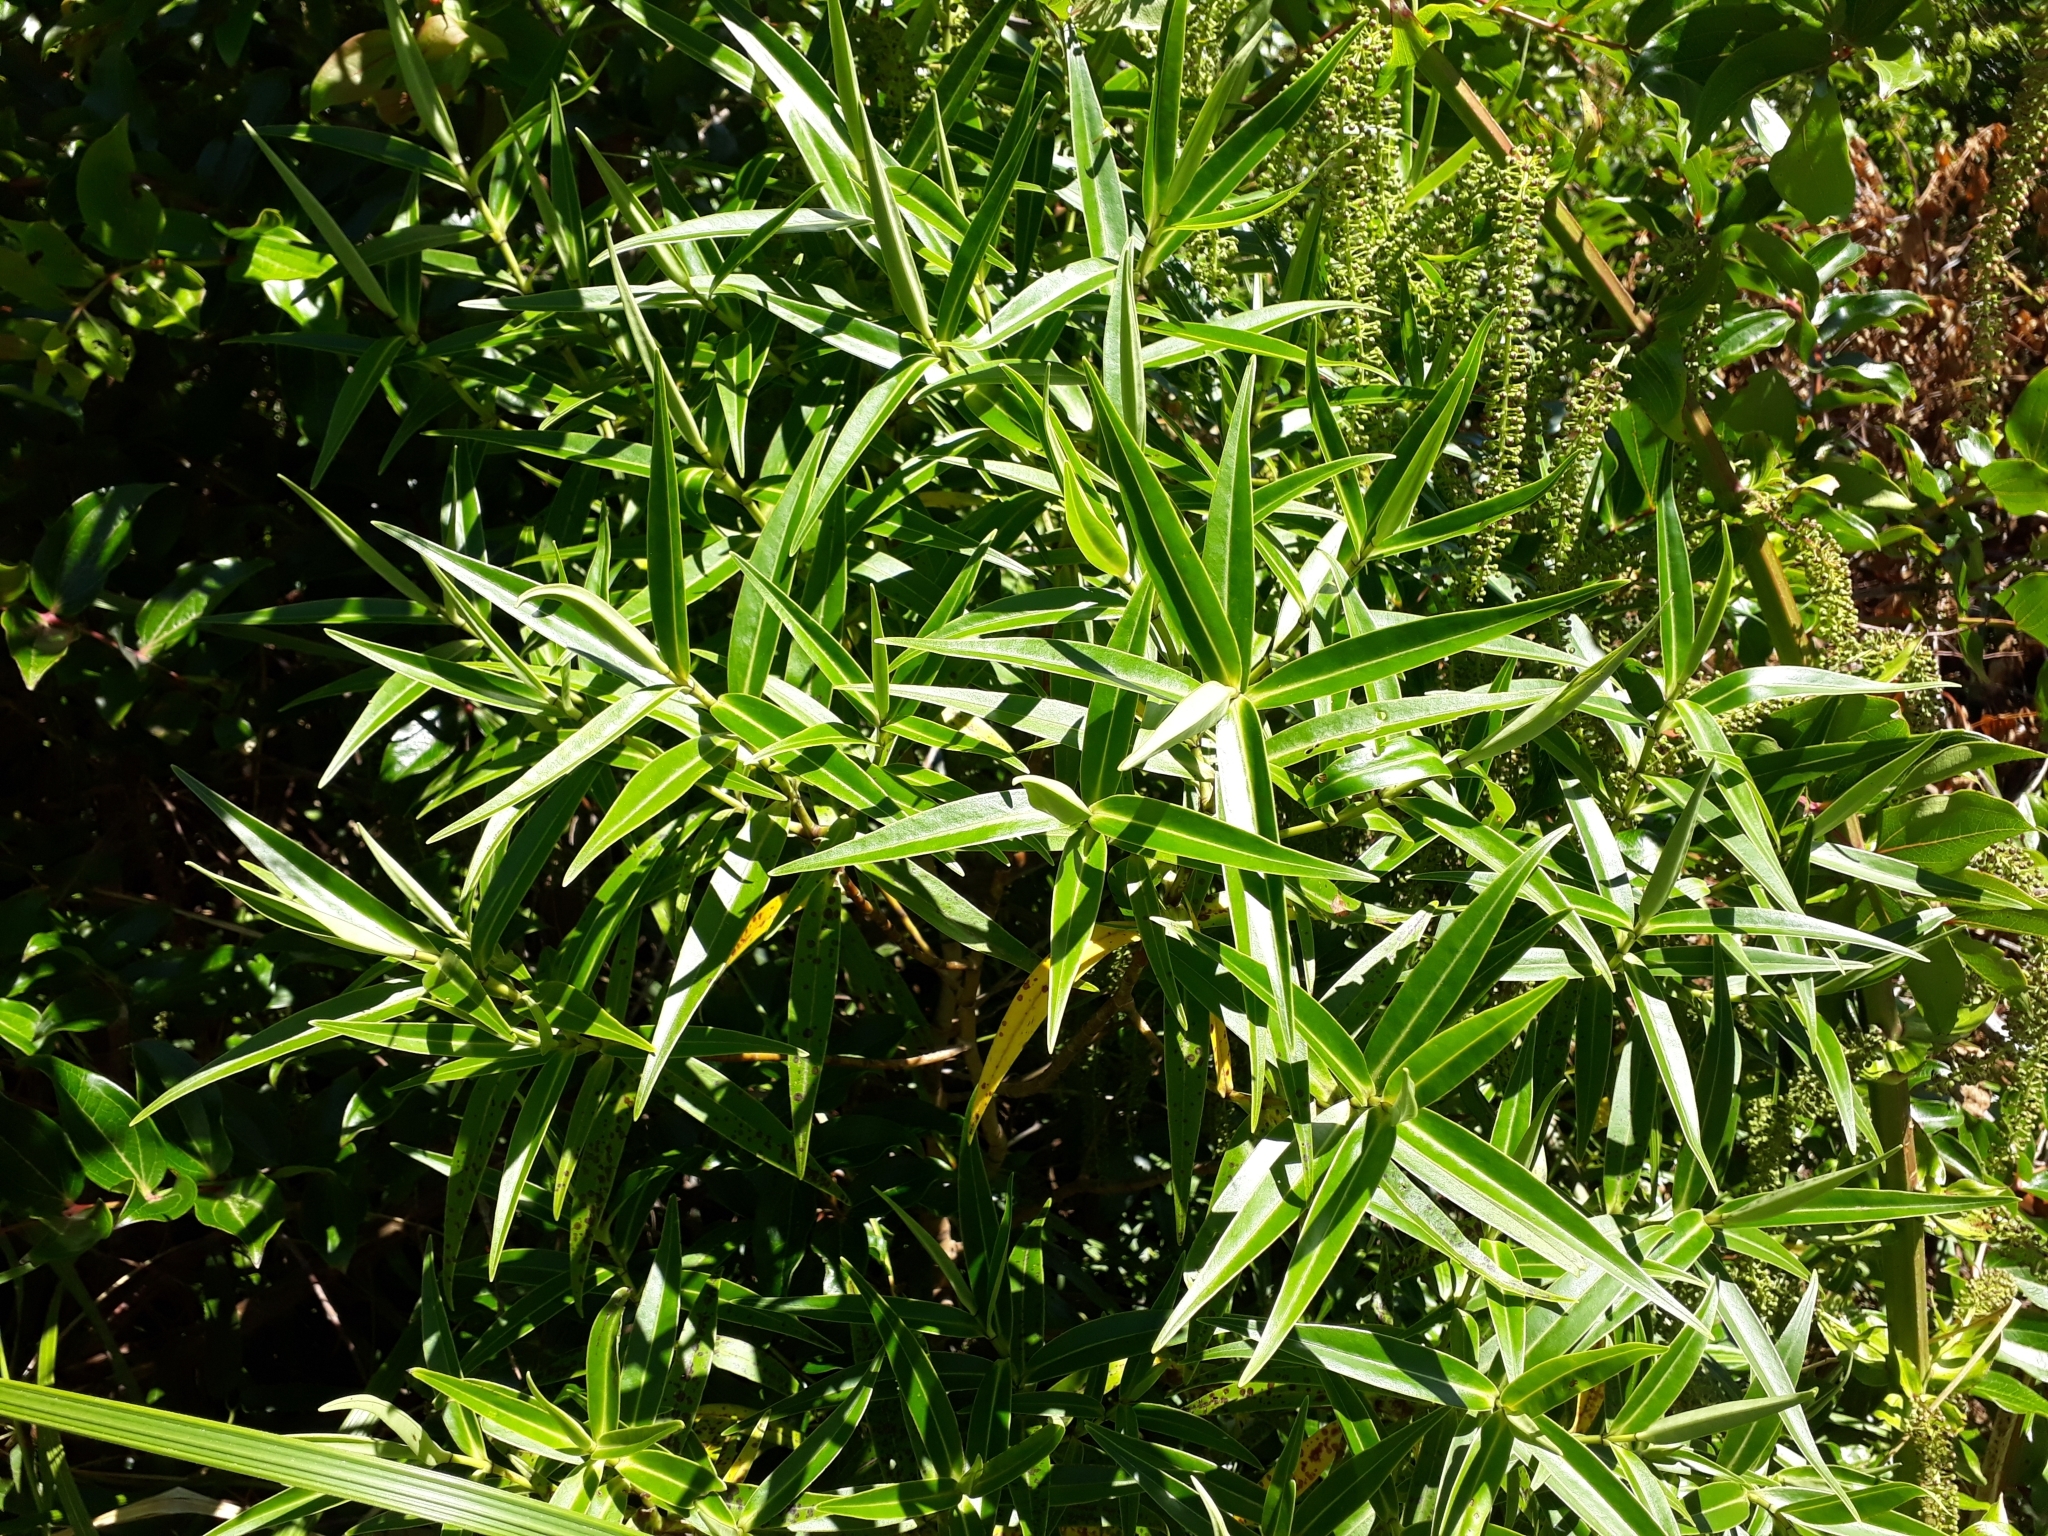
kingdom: Plantae
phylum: Tracheophyta
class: Magnoliopsida
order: Lamiales
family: Plantaginaceae
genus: Veronica
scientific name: Veronica stricta
